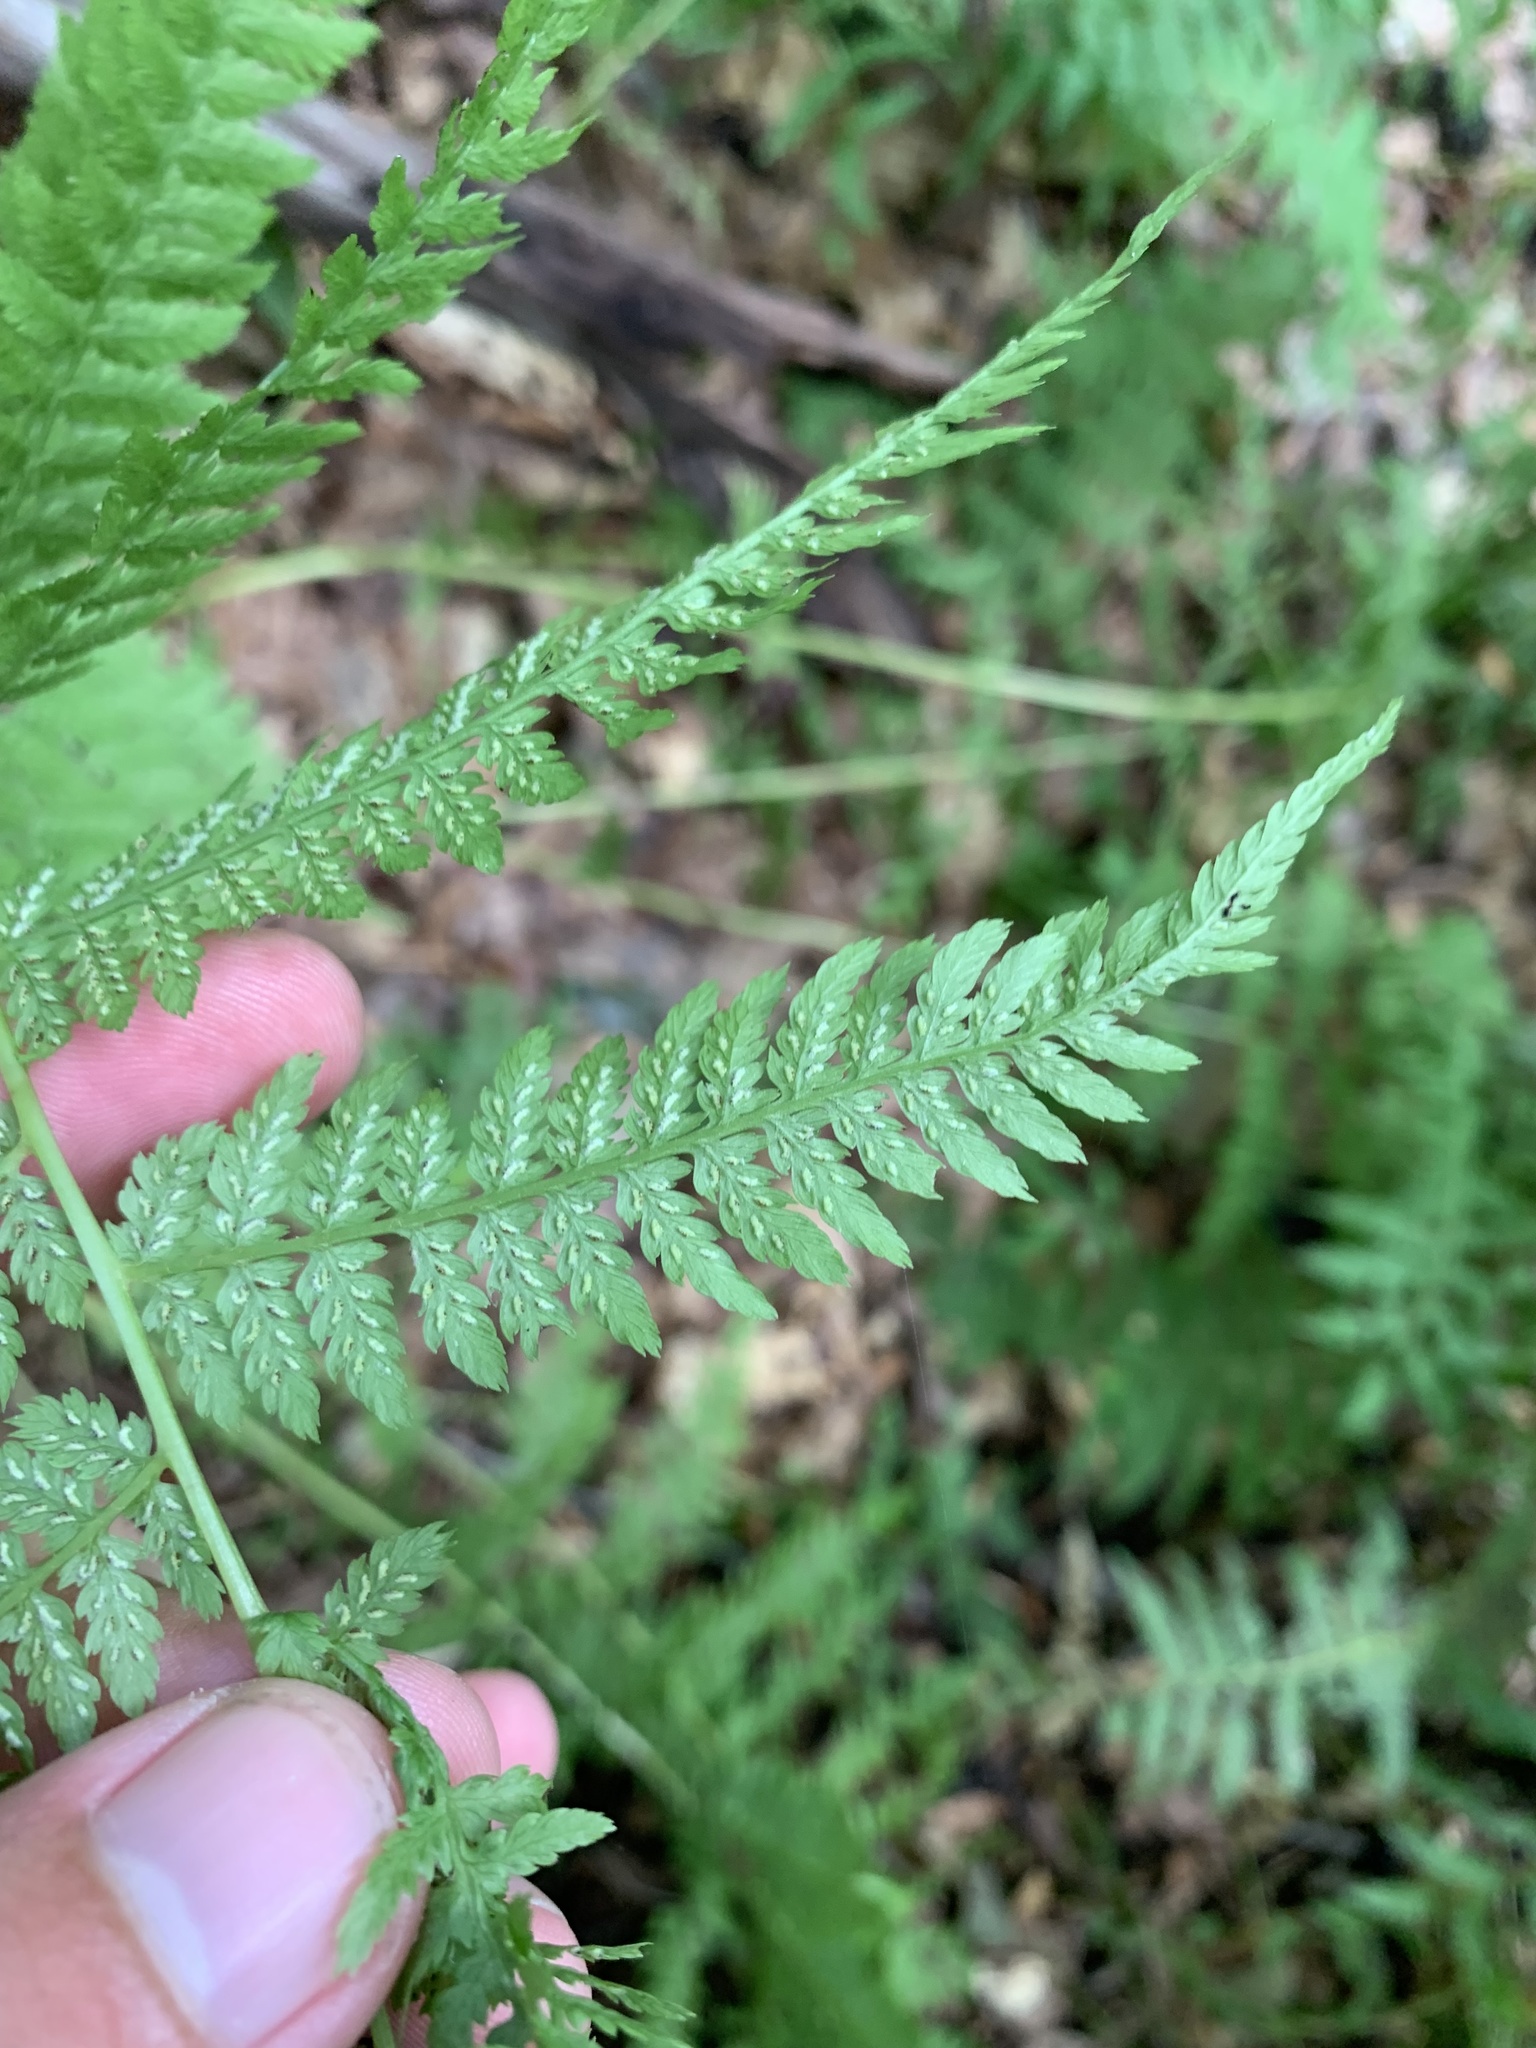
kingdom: Plantae
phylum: Tracheophyta
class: Polypodiopsida
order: Polypodiales
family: Athyriaceae
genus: Athyrium
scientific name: Athyrium angustum
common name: Northern lady fern
